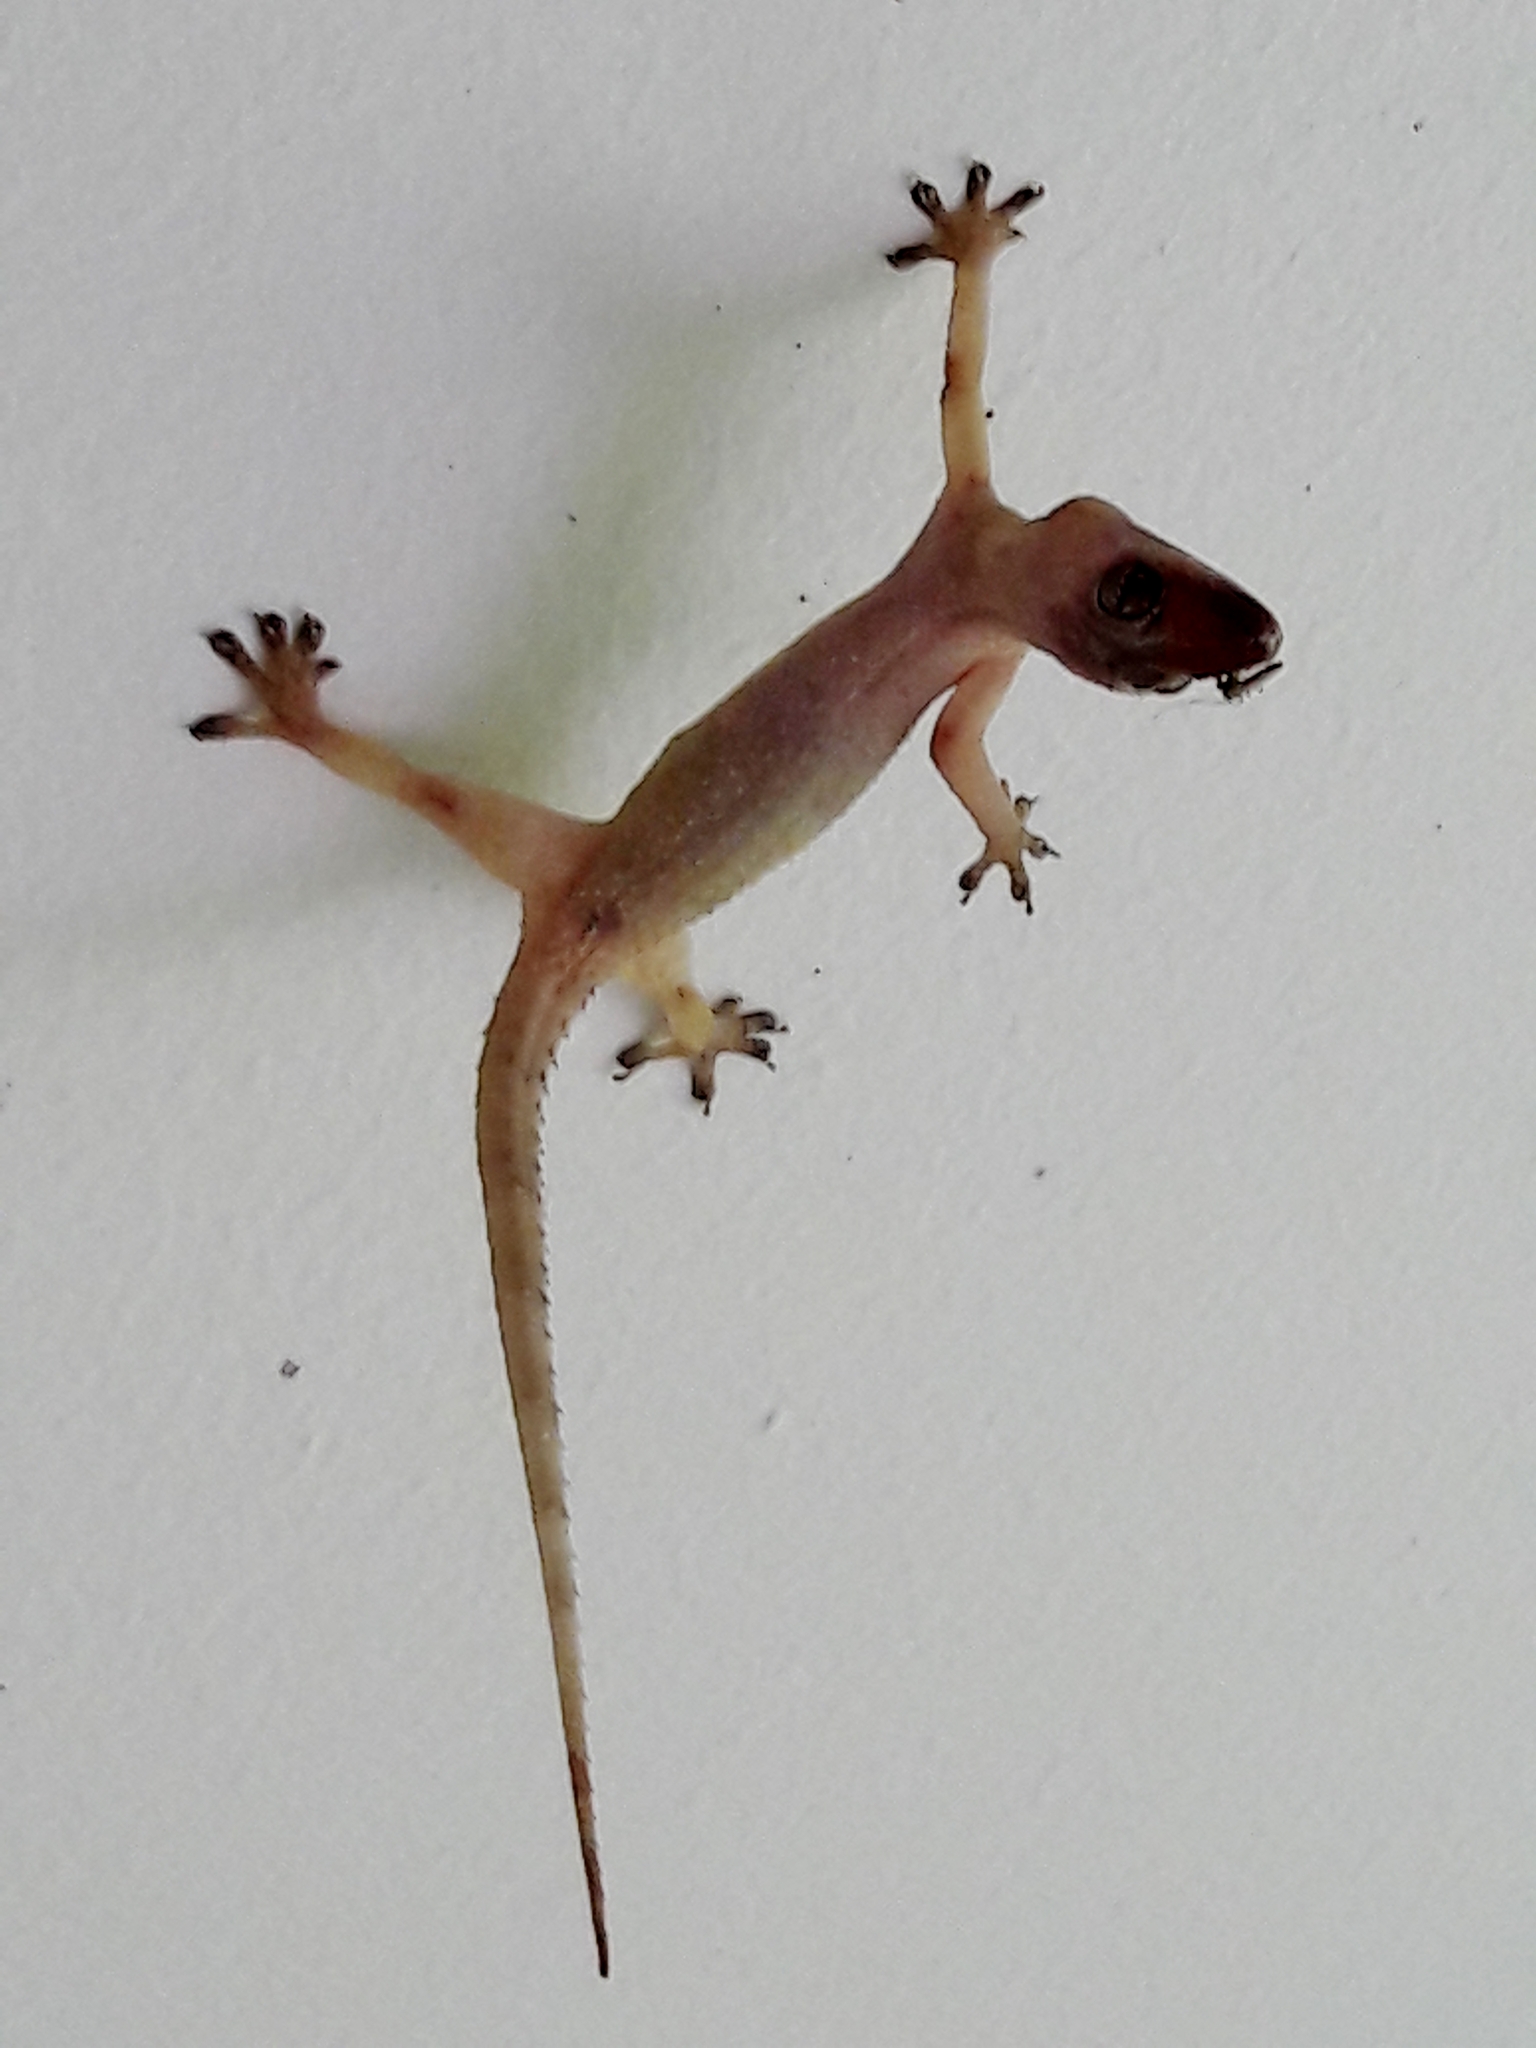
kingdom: Animalia
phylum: Chordata
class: Squamata
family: Gekkonidae
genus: Hemidactylus
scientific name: Hemidactylus mabouia
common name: House gecko
